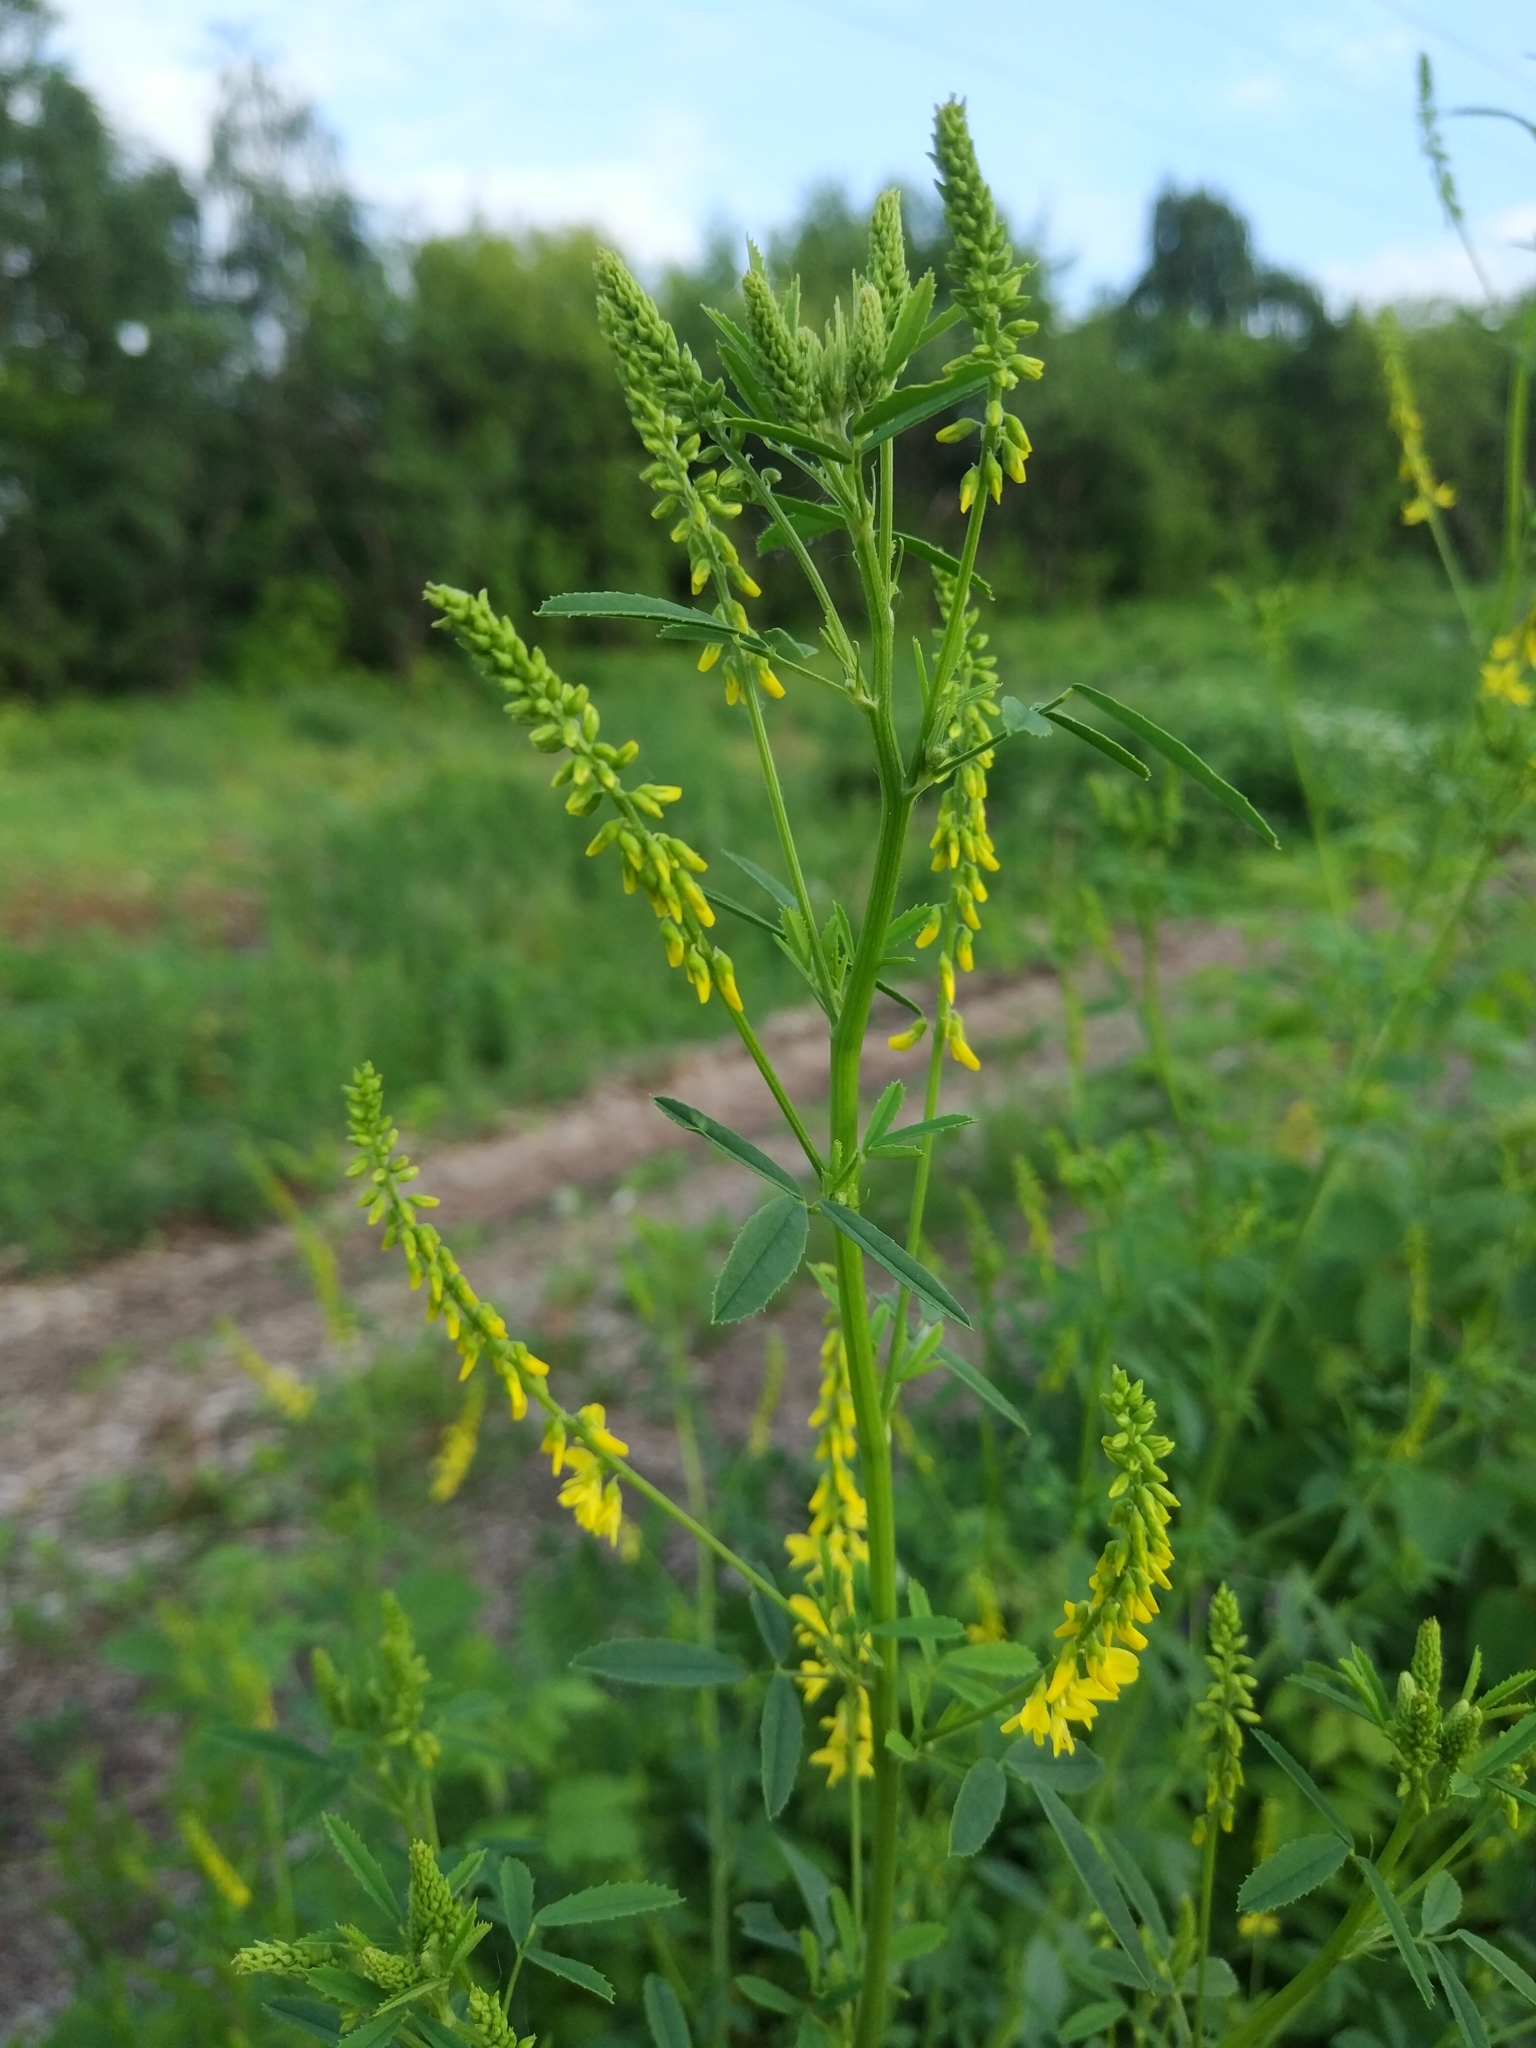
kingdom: Plantae
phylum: Tracheophyta
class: Magnoliopsida
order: Fabales
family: Fabaceae
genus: Melilotus
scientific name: Melilotus officinalis
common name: Sweetclover
